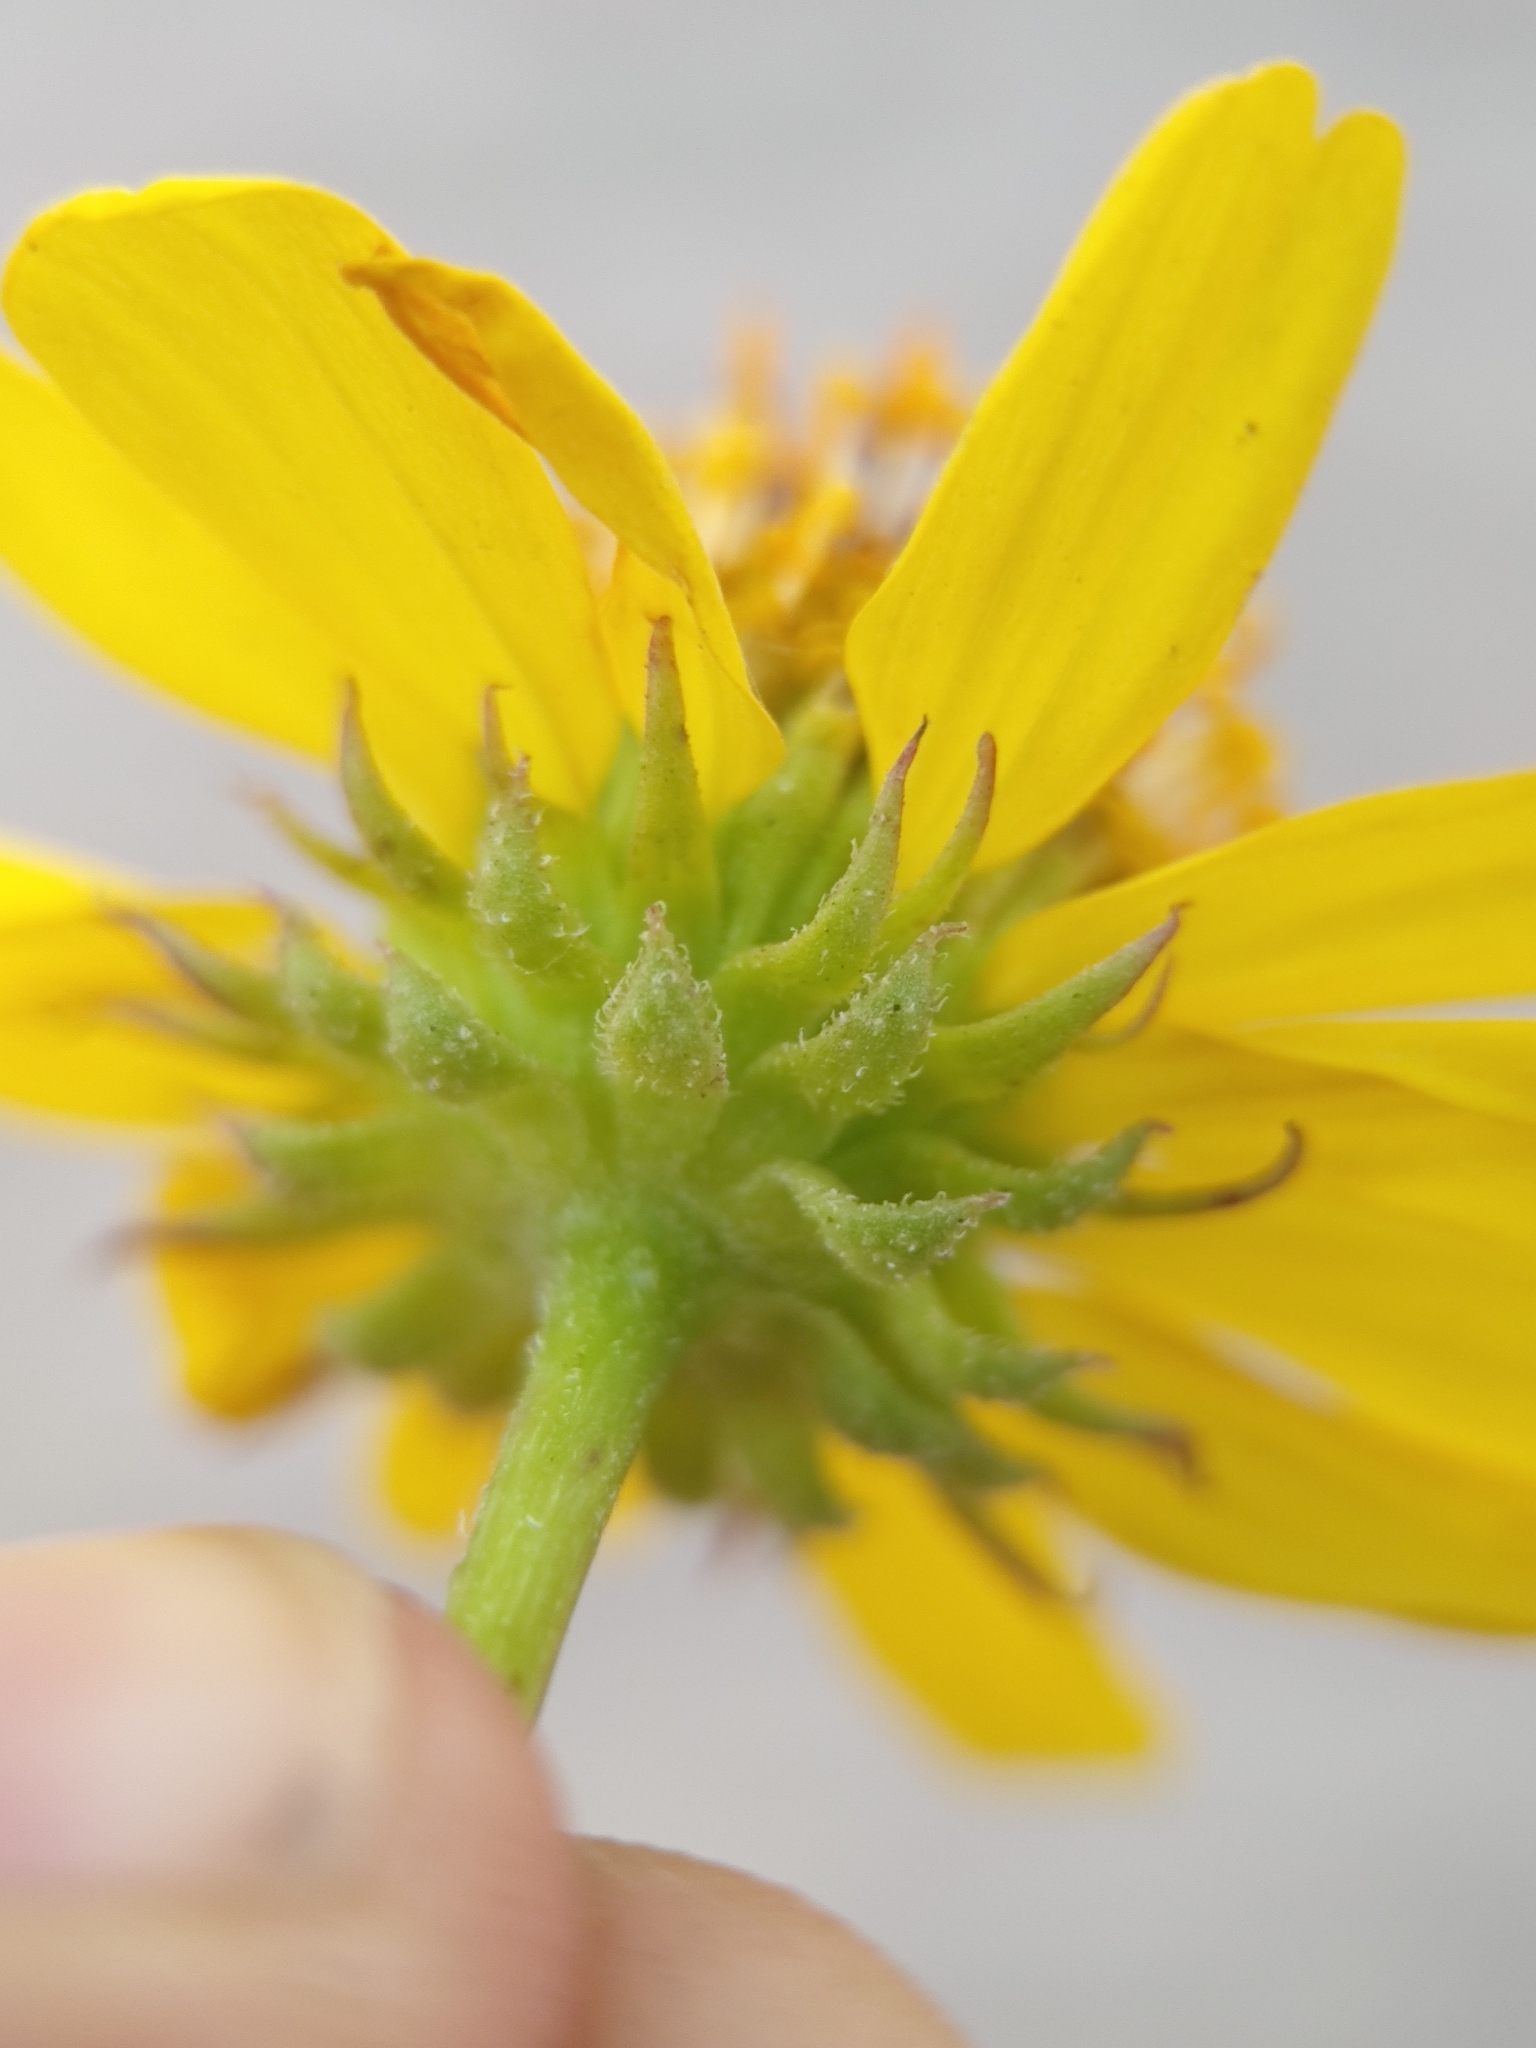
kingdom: Plantae
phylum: Tracheophyta
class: Magnoliopsida
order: Asterales
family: Asteraceae
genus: Encelia
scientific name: Encelia balandra
